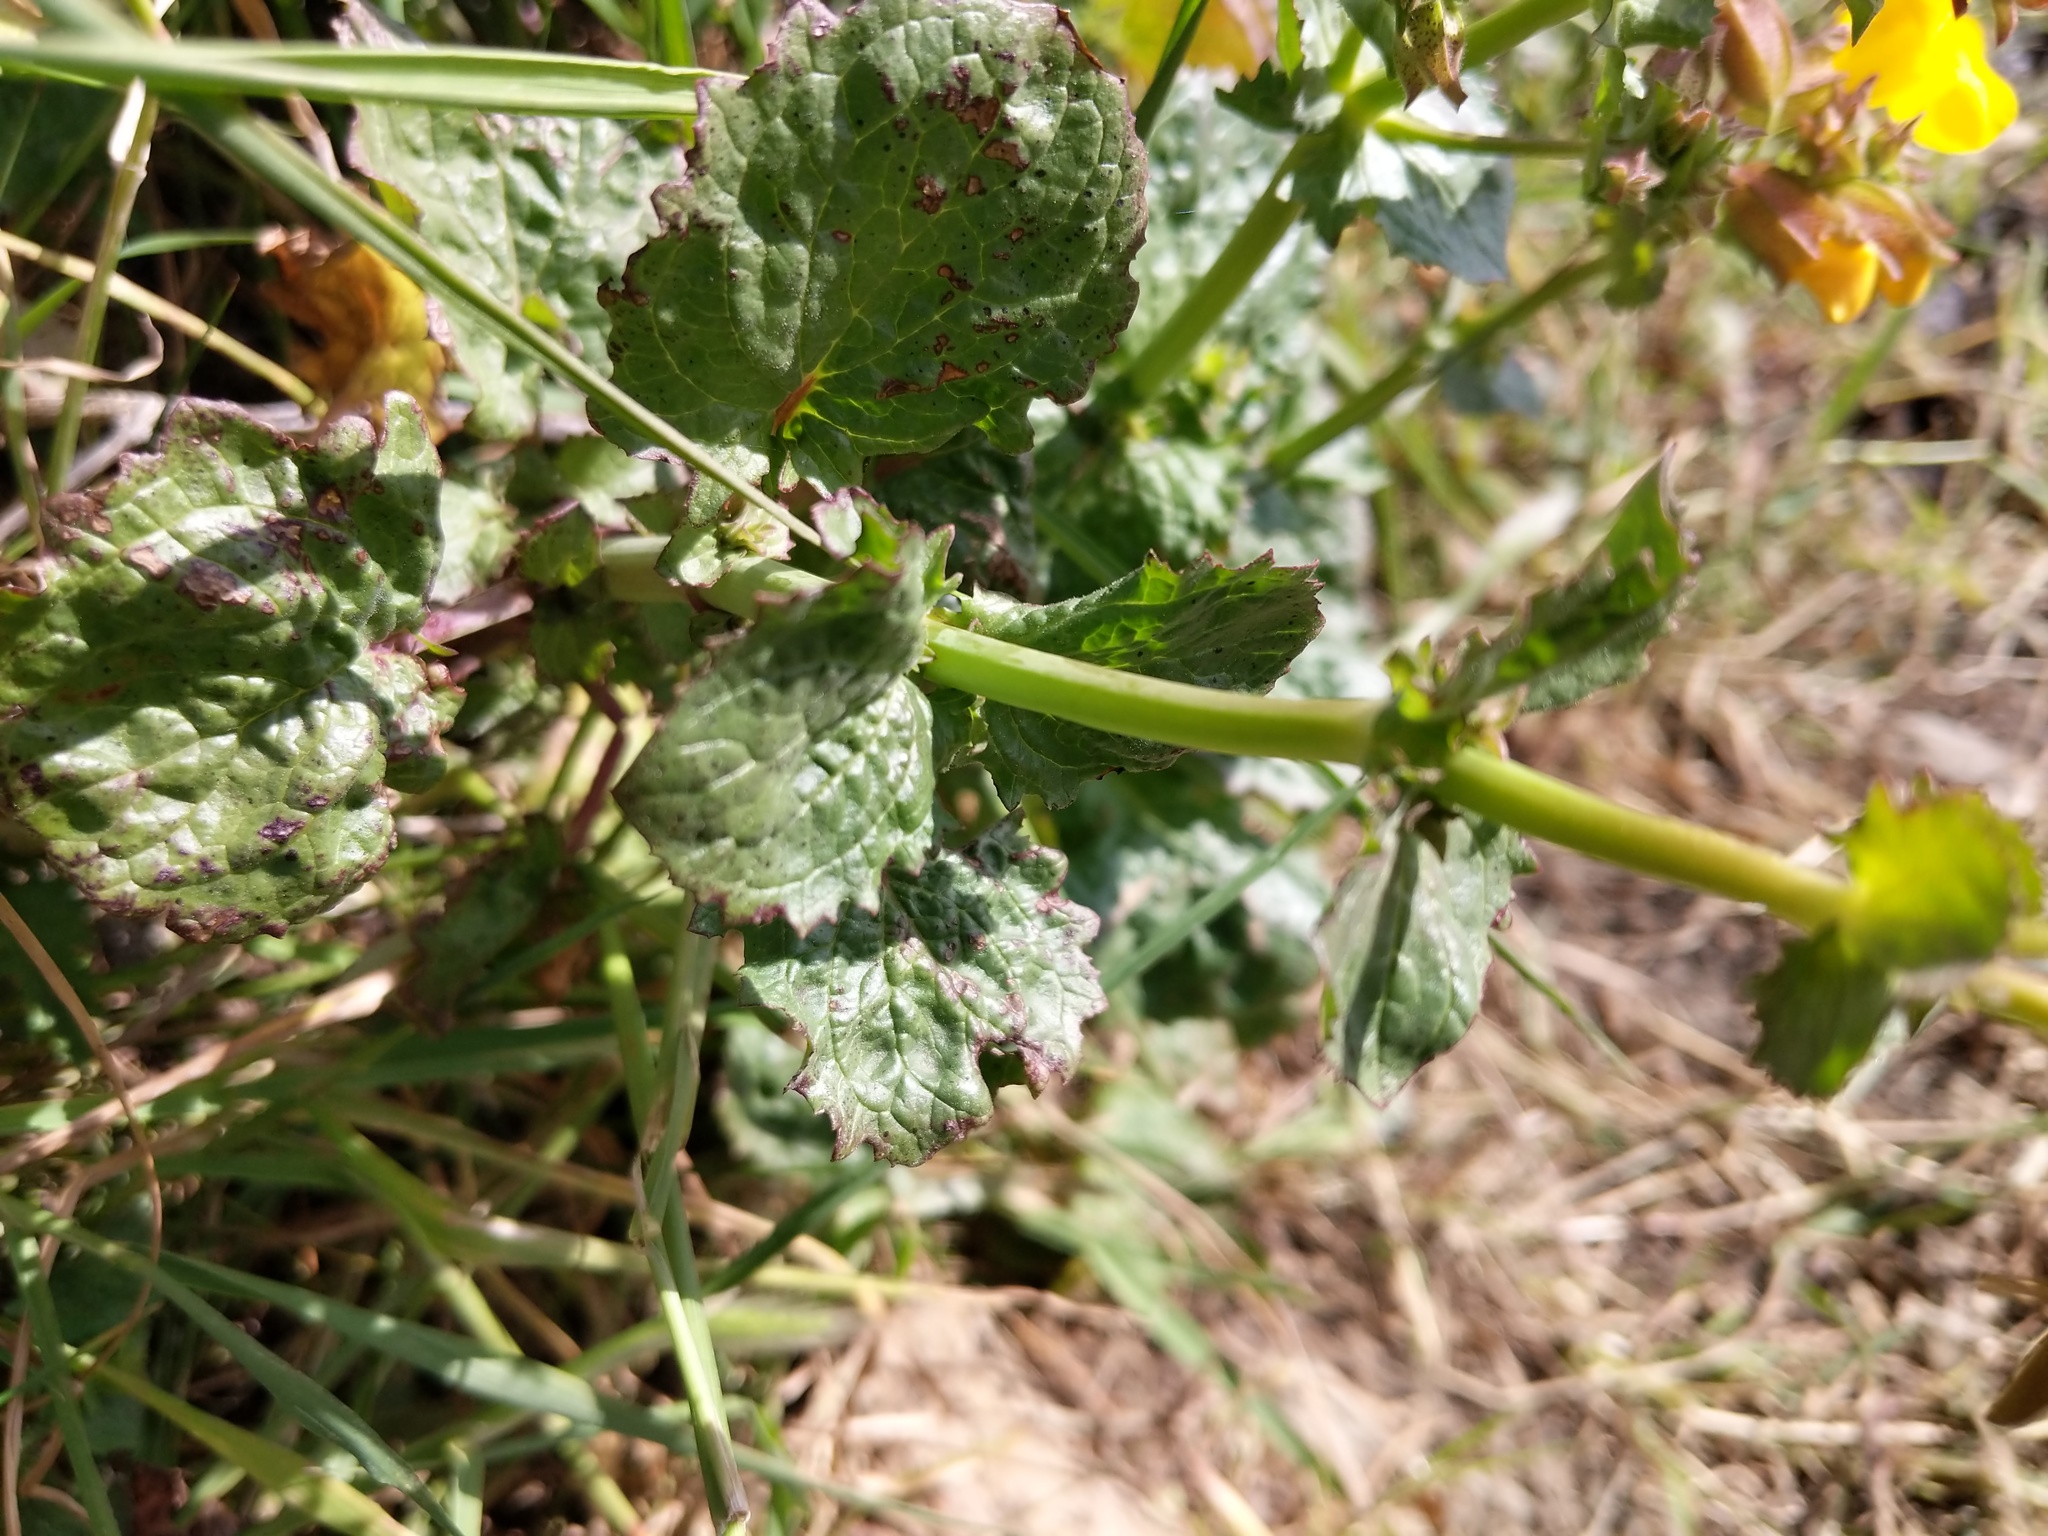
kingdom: Plantae
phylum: Tracheophyta
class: Magnoliopsida
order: Lamiales
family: Phrymaceae
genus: Erythranthe
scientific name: Erythranthe guttata
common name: Monkeyflower
